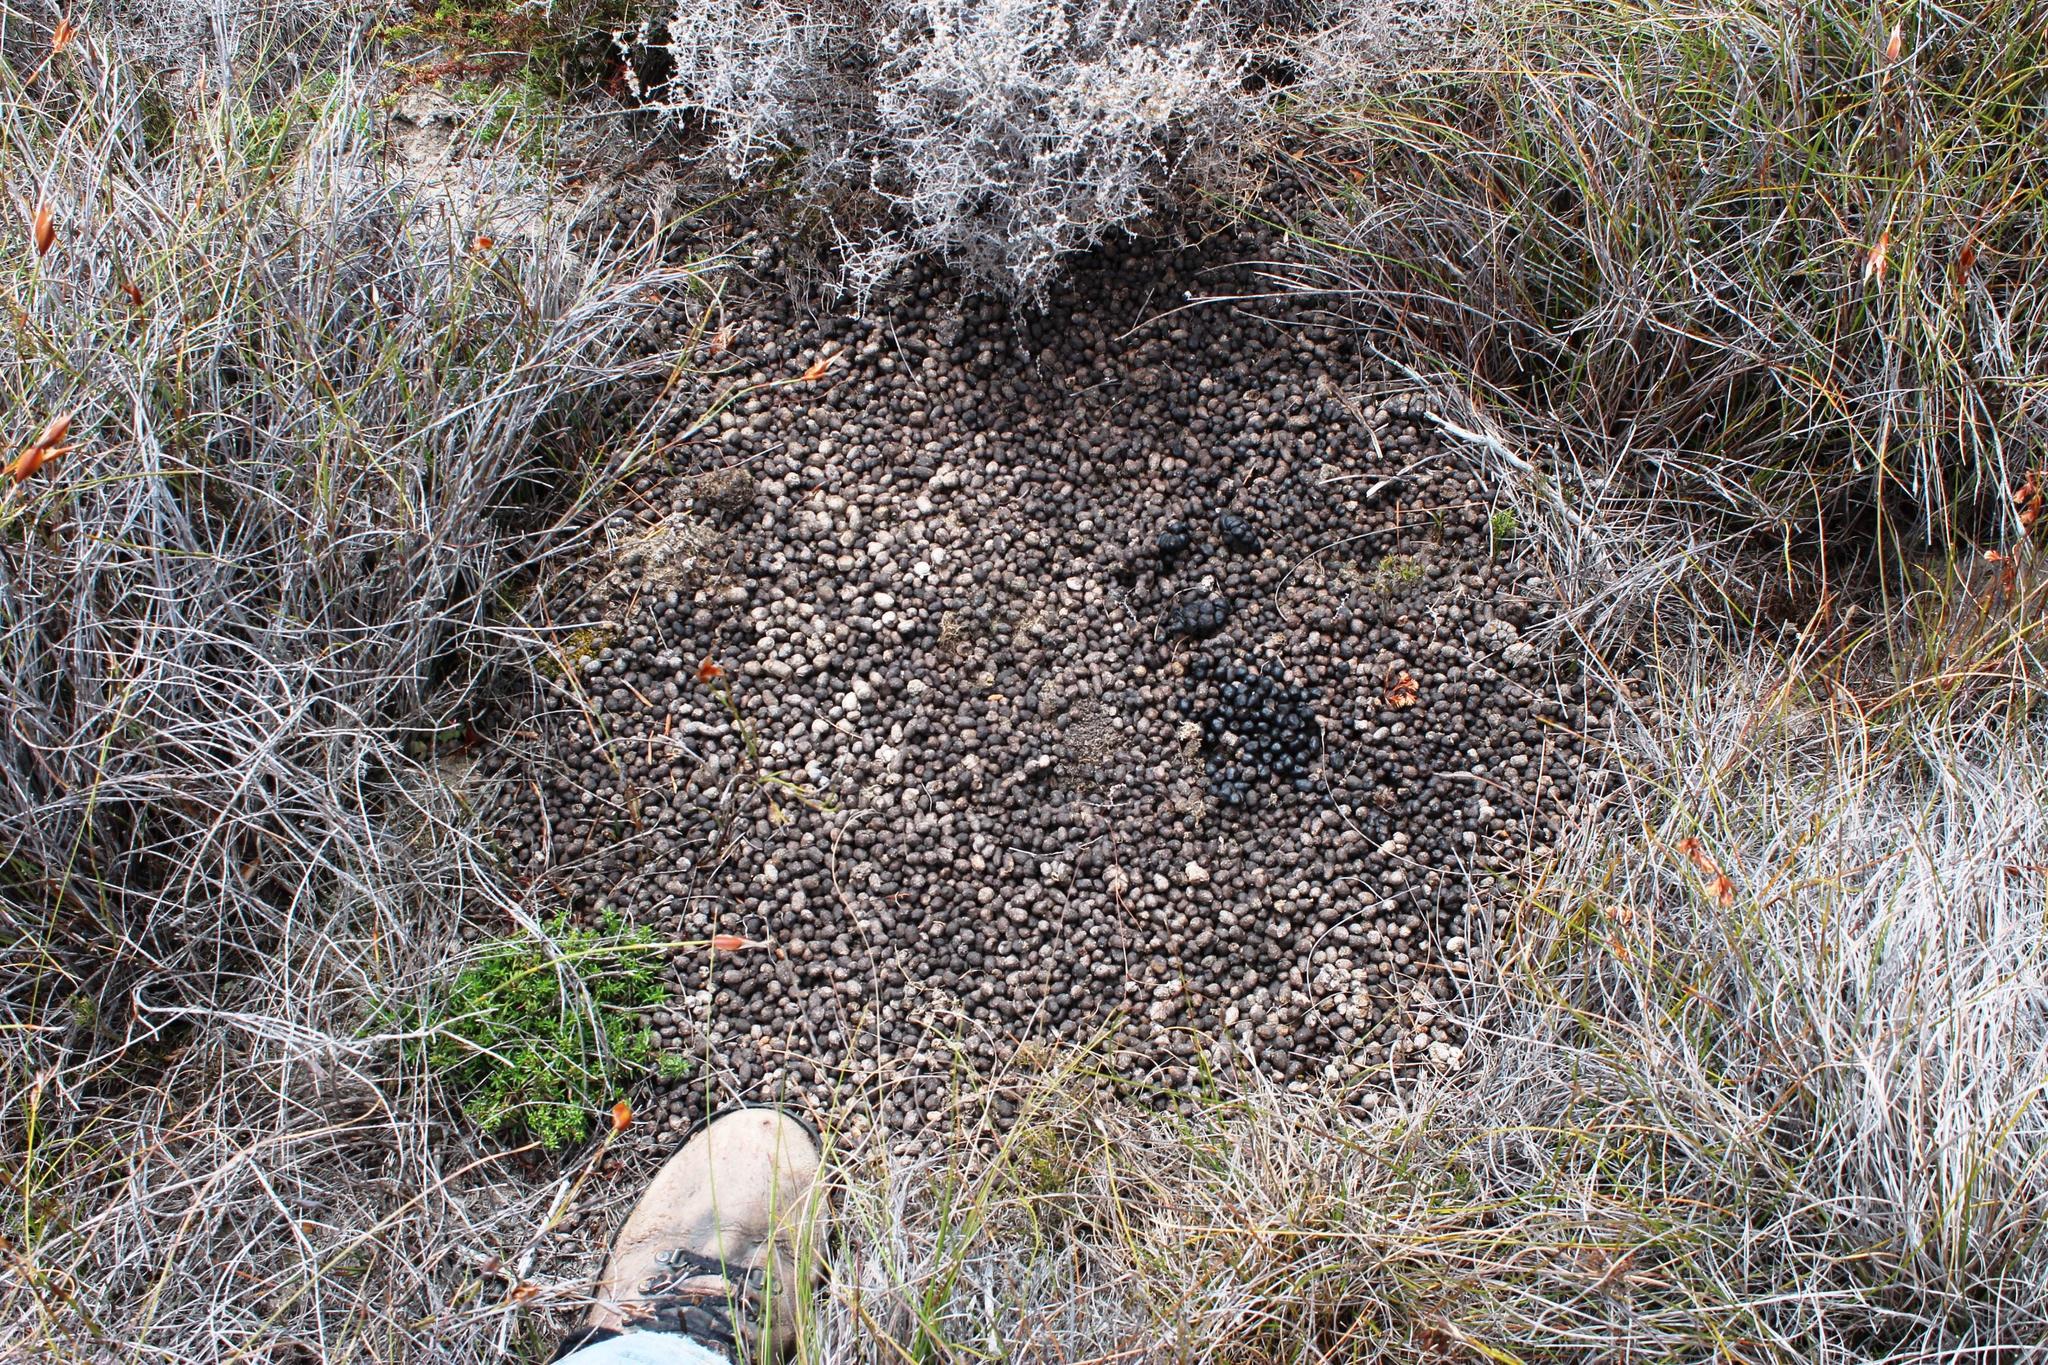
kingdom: Animalia
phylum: Chordata
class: Mammalia
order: Artiodactyla
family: Bovidae
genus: Oreotragus
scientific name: Oreotragus oreotragus
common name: Klipspringer
